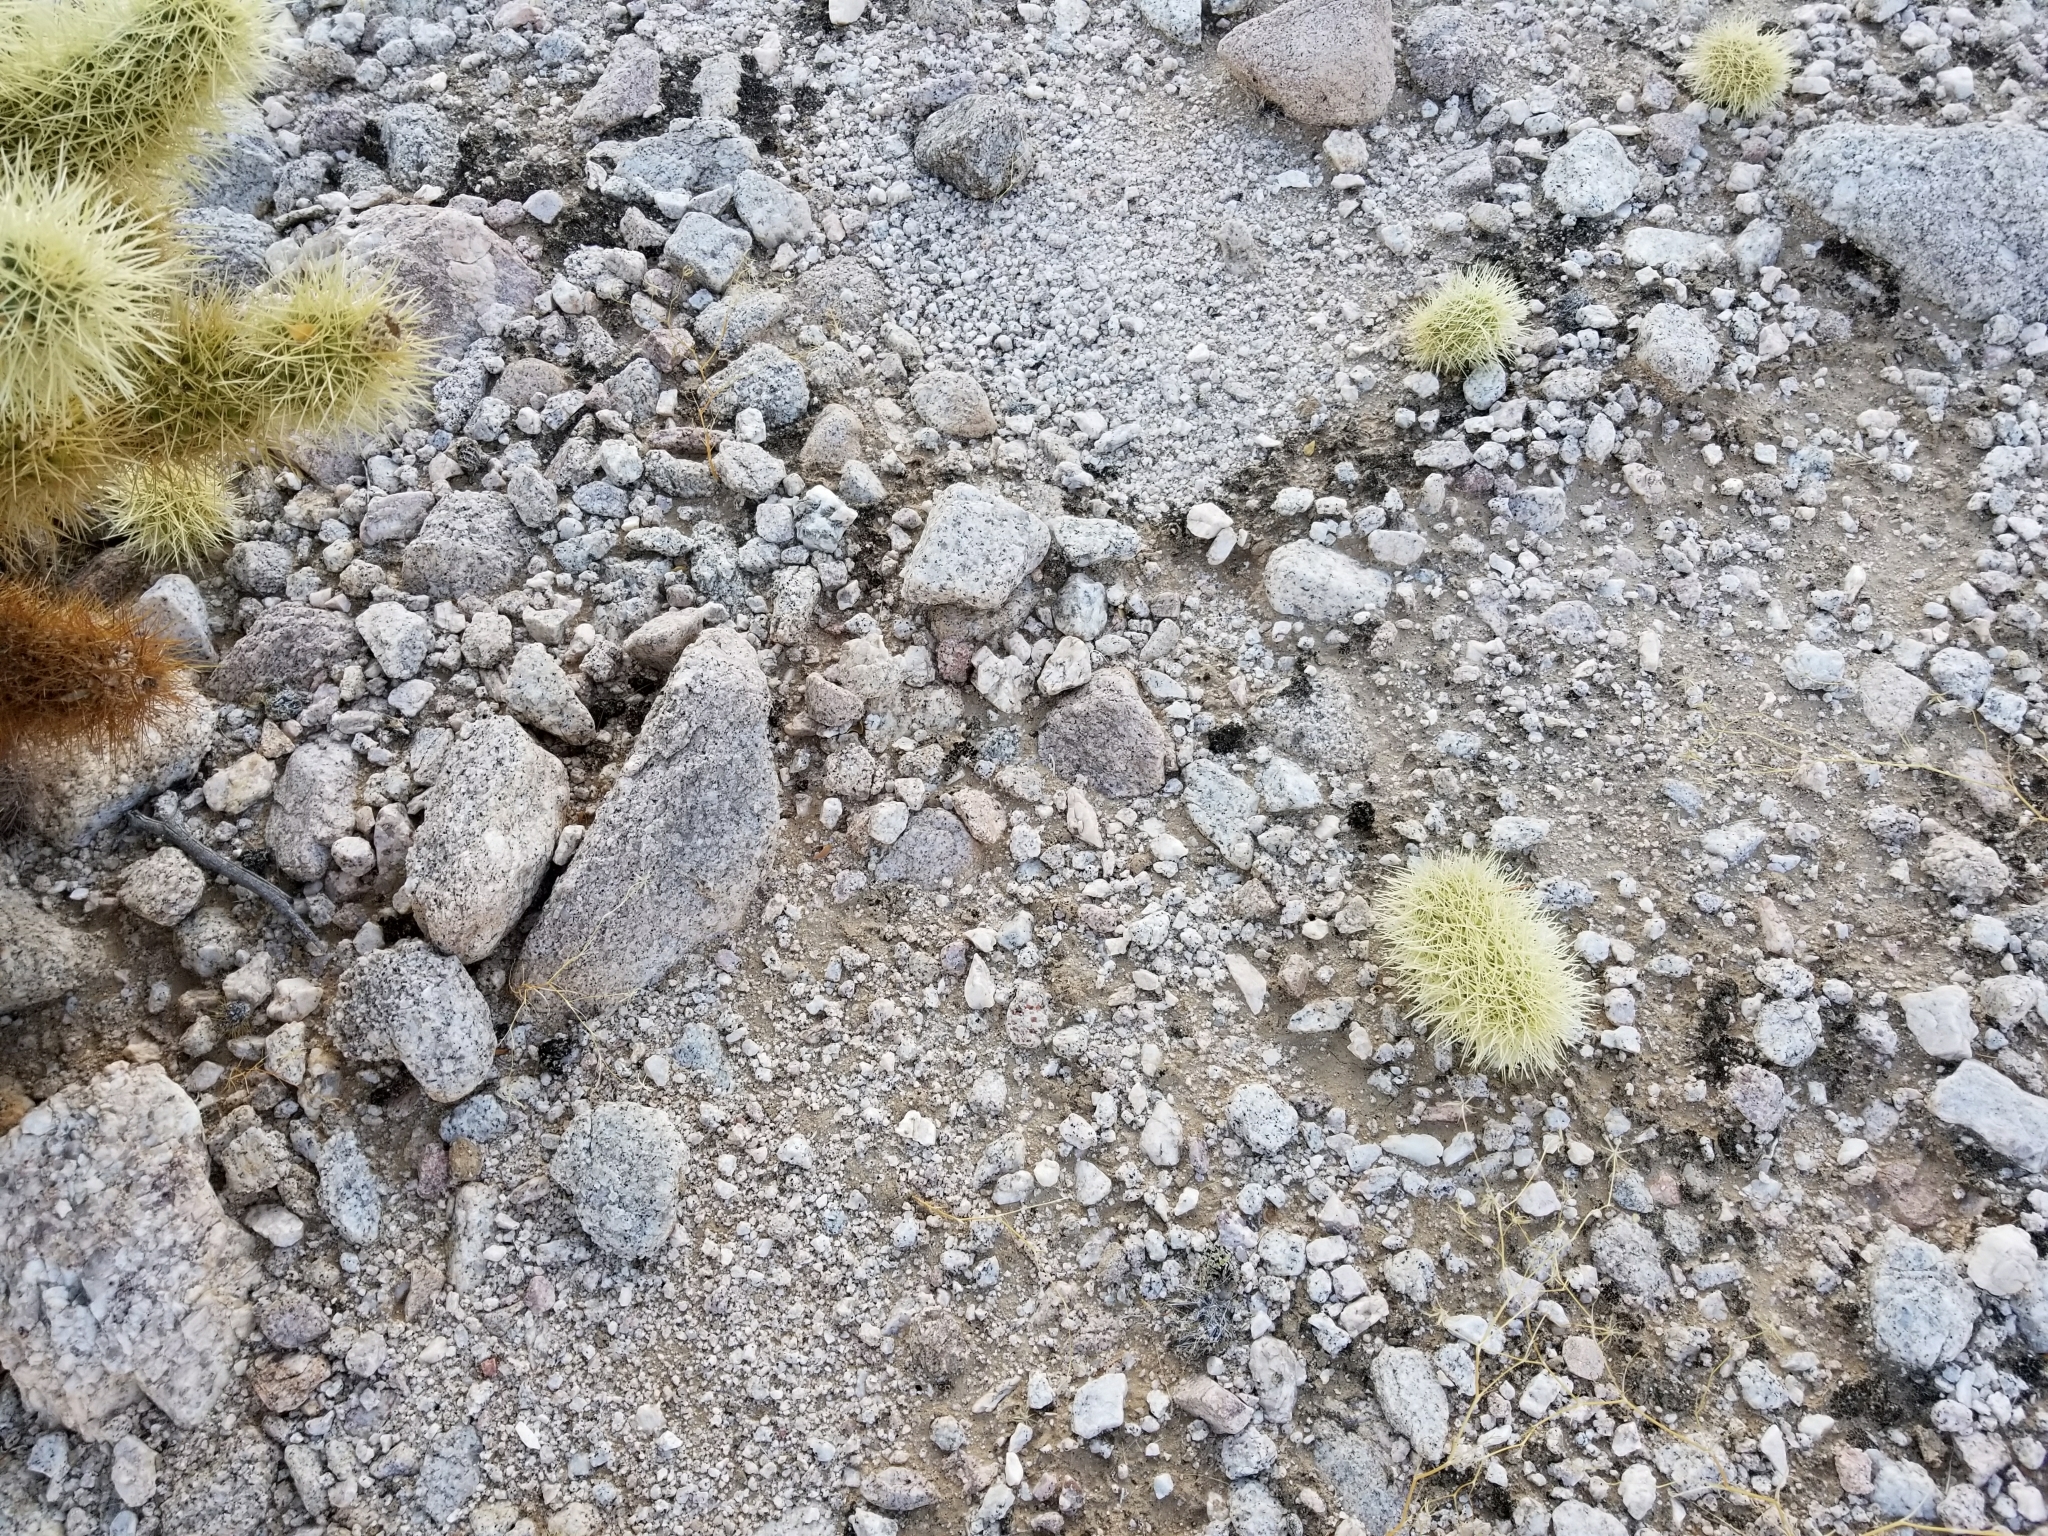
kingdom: Plantae
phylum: Tracheophyta
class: Magnoliopsida
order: Caryophyllales
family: Cactaceae
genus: Cylindropuntia
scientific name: Cylindropuntia fosbergii
